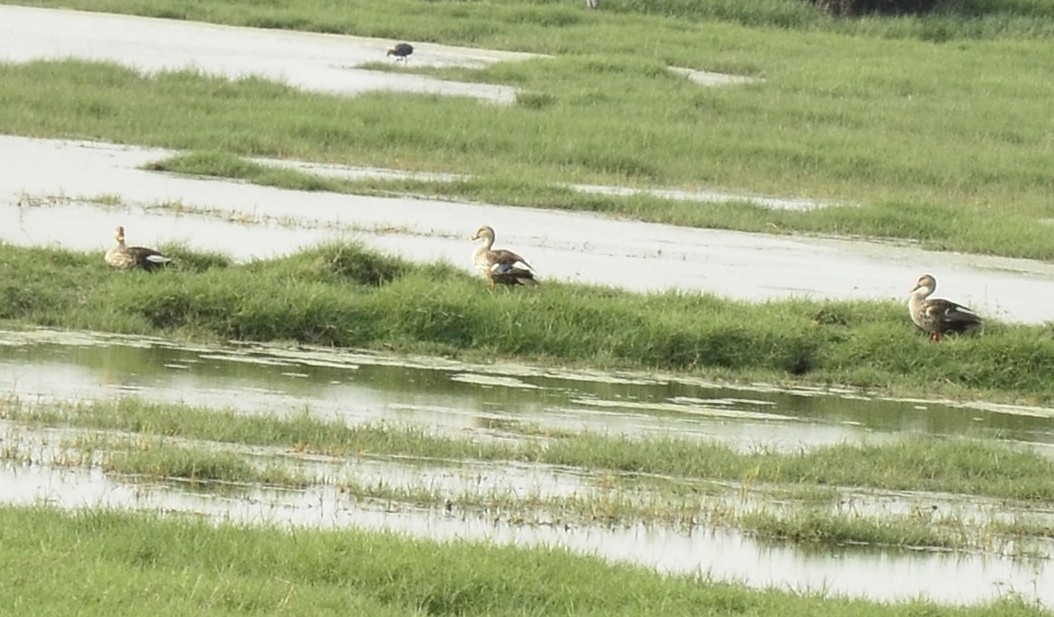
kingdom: Animalia
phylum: Chordata
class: Aves
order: Anseriformes
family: Anatidae
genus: Anas
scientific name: Anas poecilorhyncha
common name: Indian spot-billed duck
